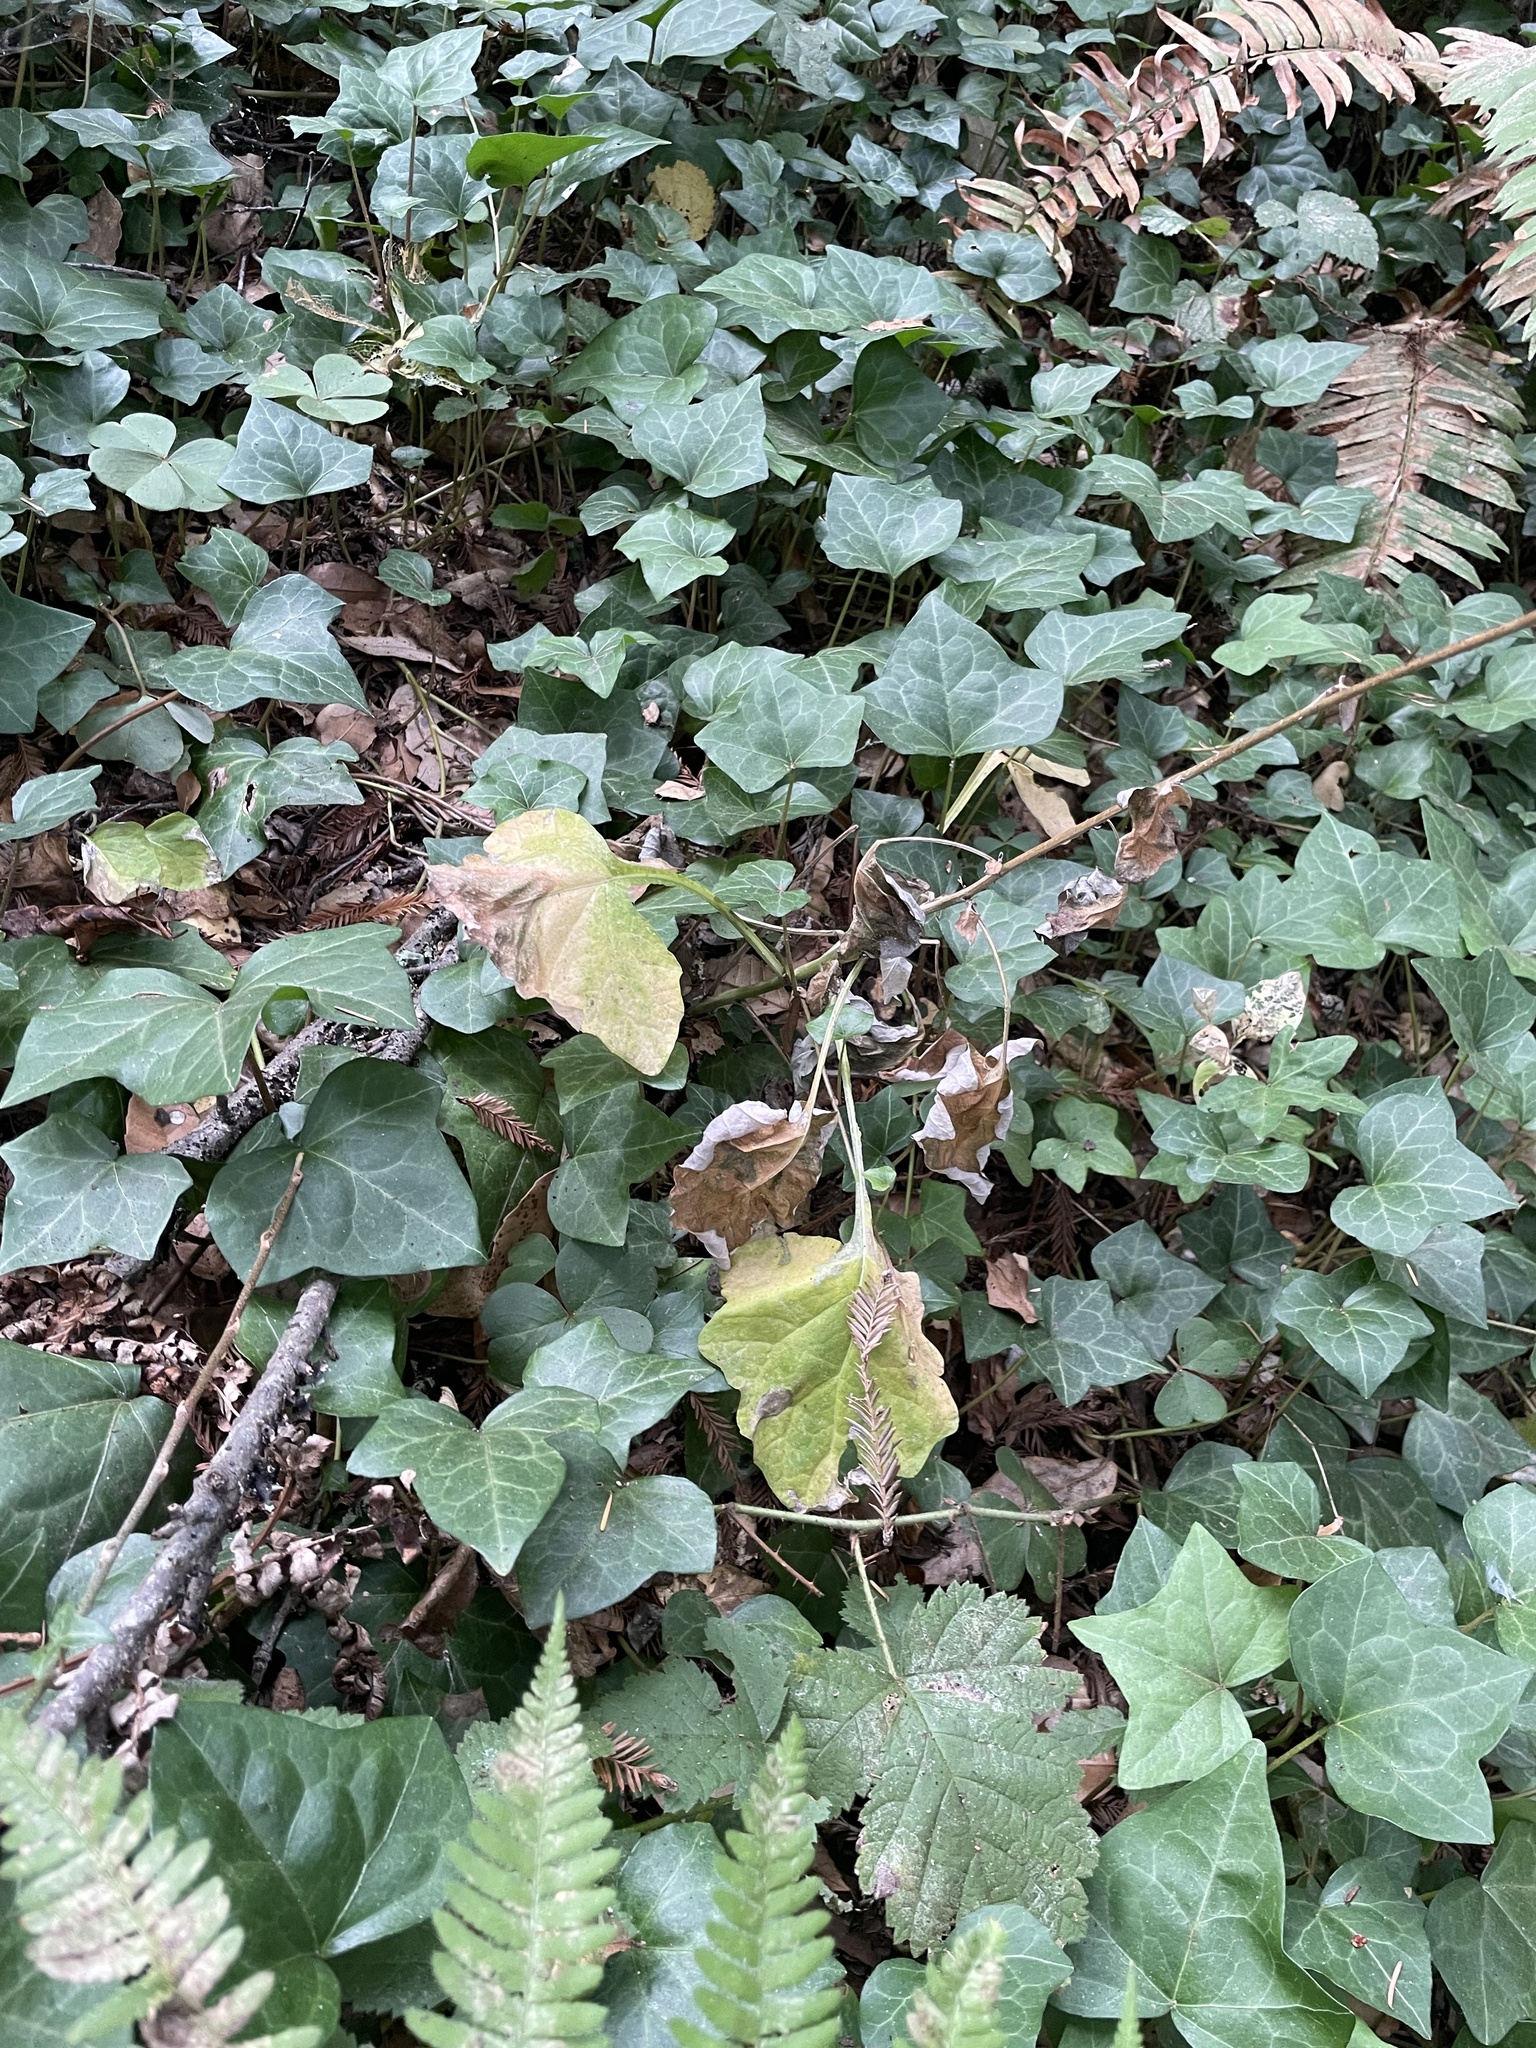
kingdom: Plantae
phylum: Tracheophyta
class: Magnoliopsida
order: Asterales
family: Asteraceae
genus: Adenocaulon
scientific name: Adenocaulon bicolor
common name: Trailplant
